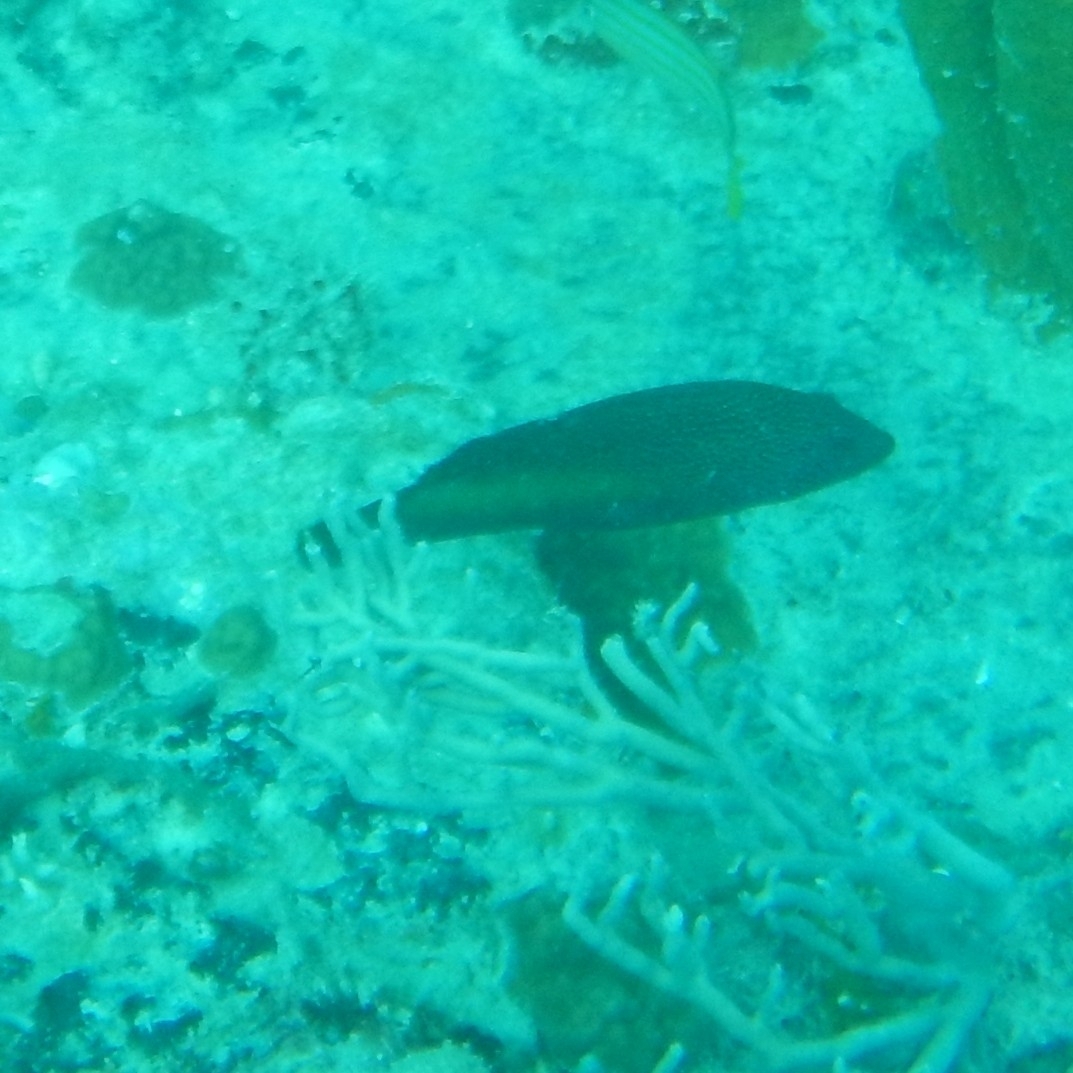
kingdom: Animalia
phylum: Chordata
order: Perciformes
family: Serranidae
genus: Cephalopholis
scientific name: Cephalopholis fulva
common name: Butterfish
